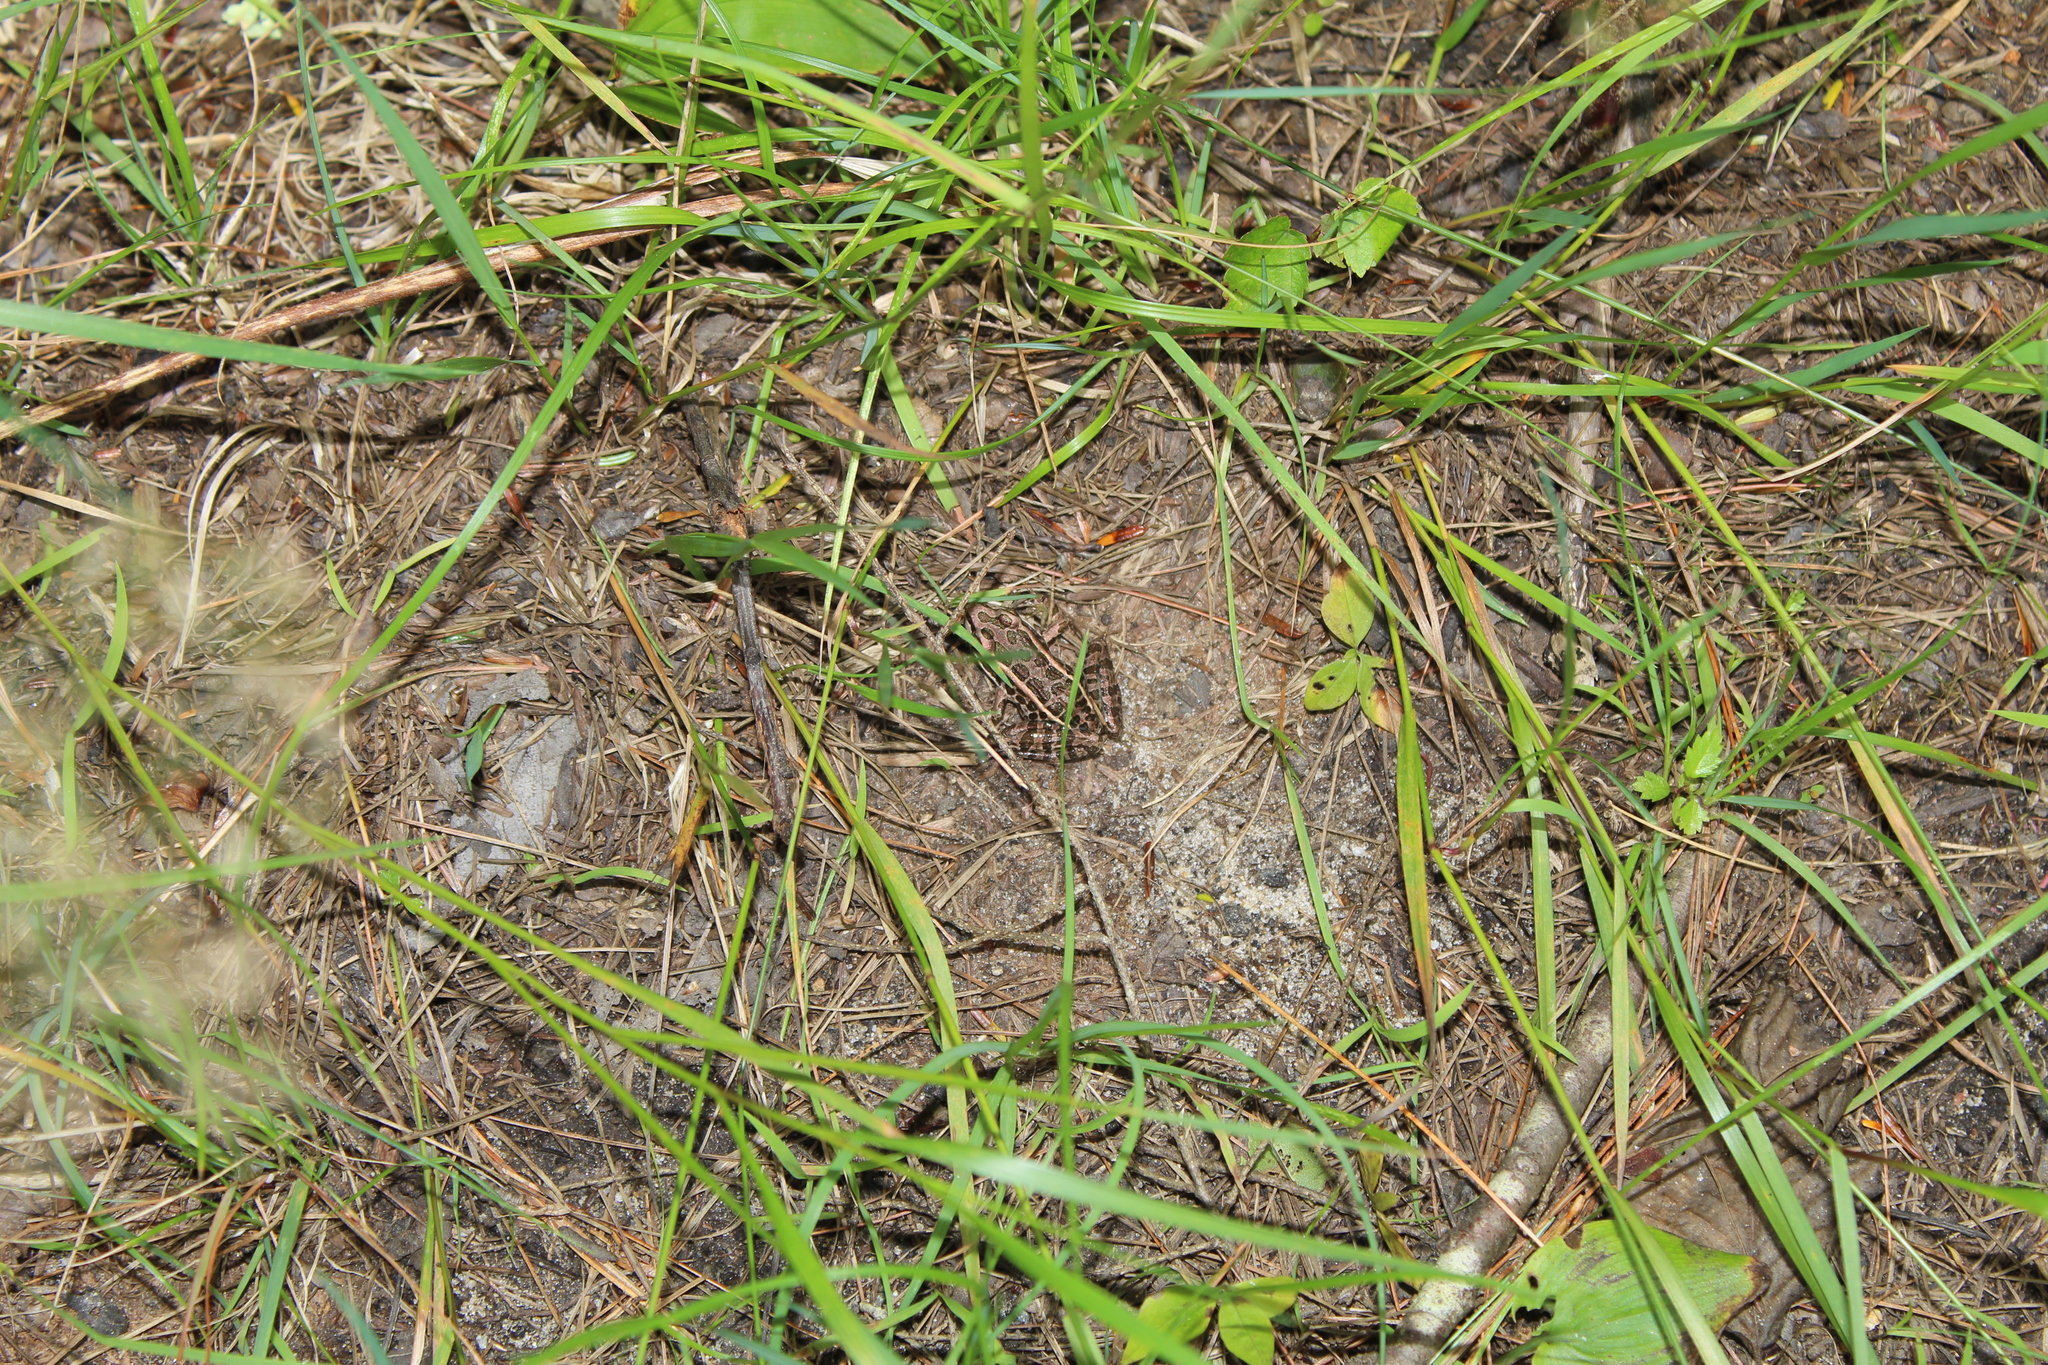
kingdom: Animalia
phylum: Chordata
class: Amphibia
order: Anura
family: Ranidae
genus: Lithobates
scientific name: Lithobates palustris
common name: Pickerel frog
